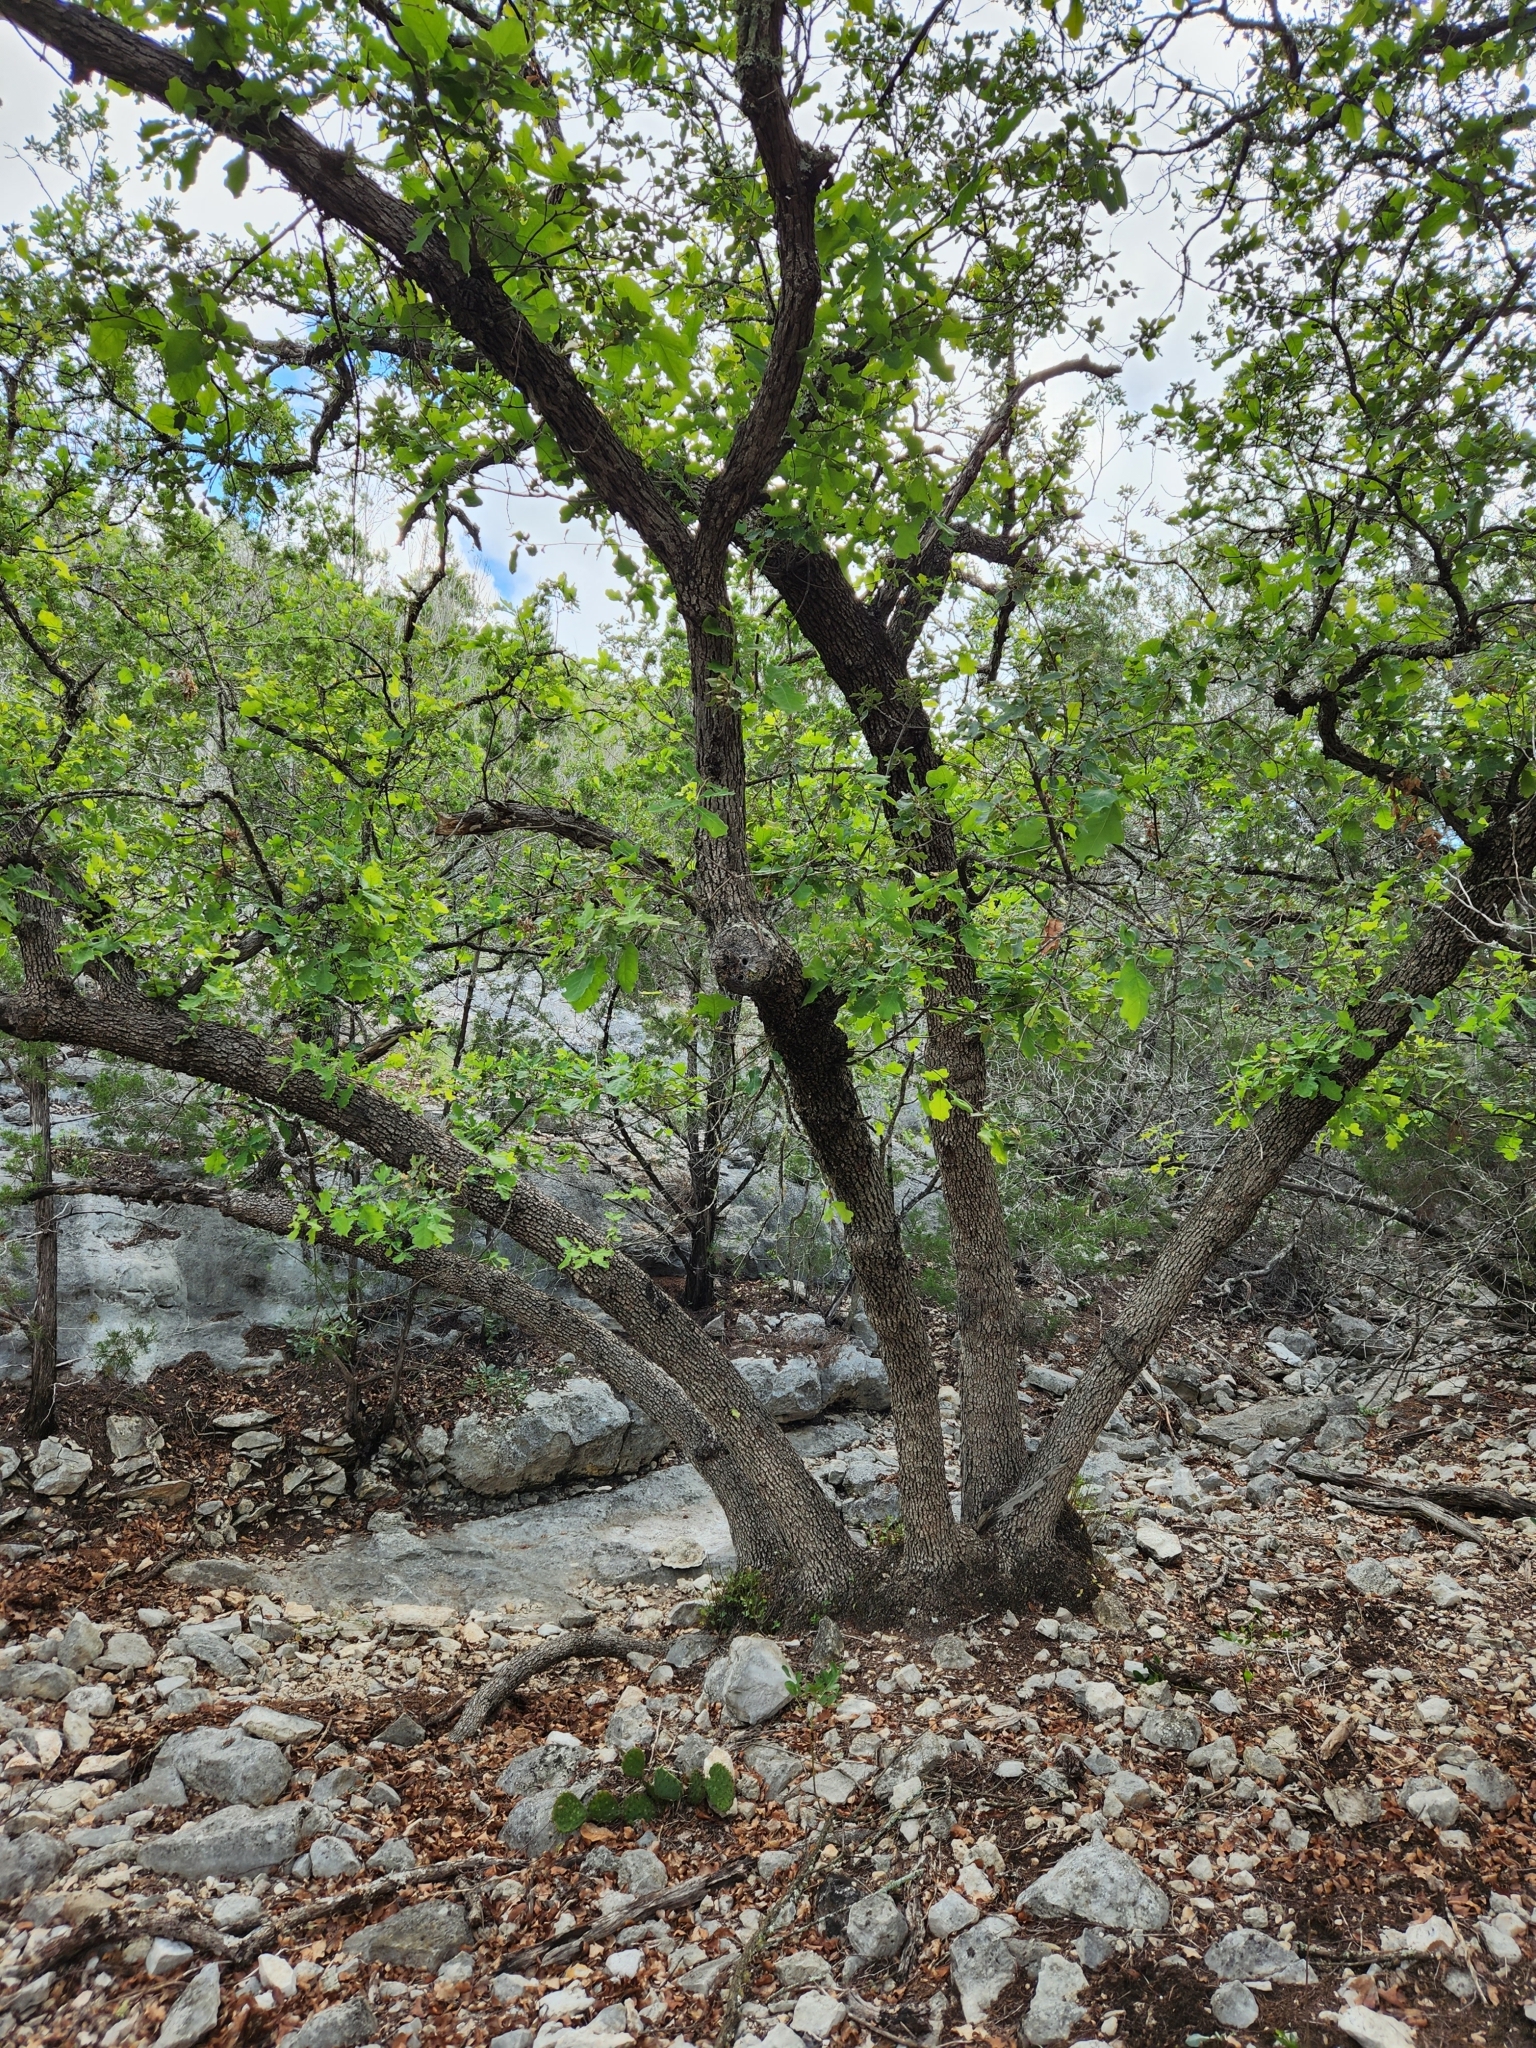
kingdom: Plantae
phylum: Tracheophyta
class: Magnoliopsida
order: Fagales
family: Fagaceae
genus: Quercus
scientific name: Quercus laceyi
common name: Lacey oak
